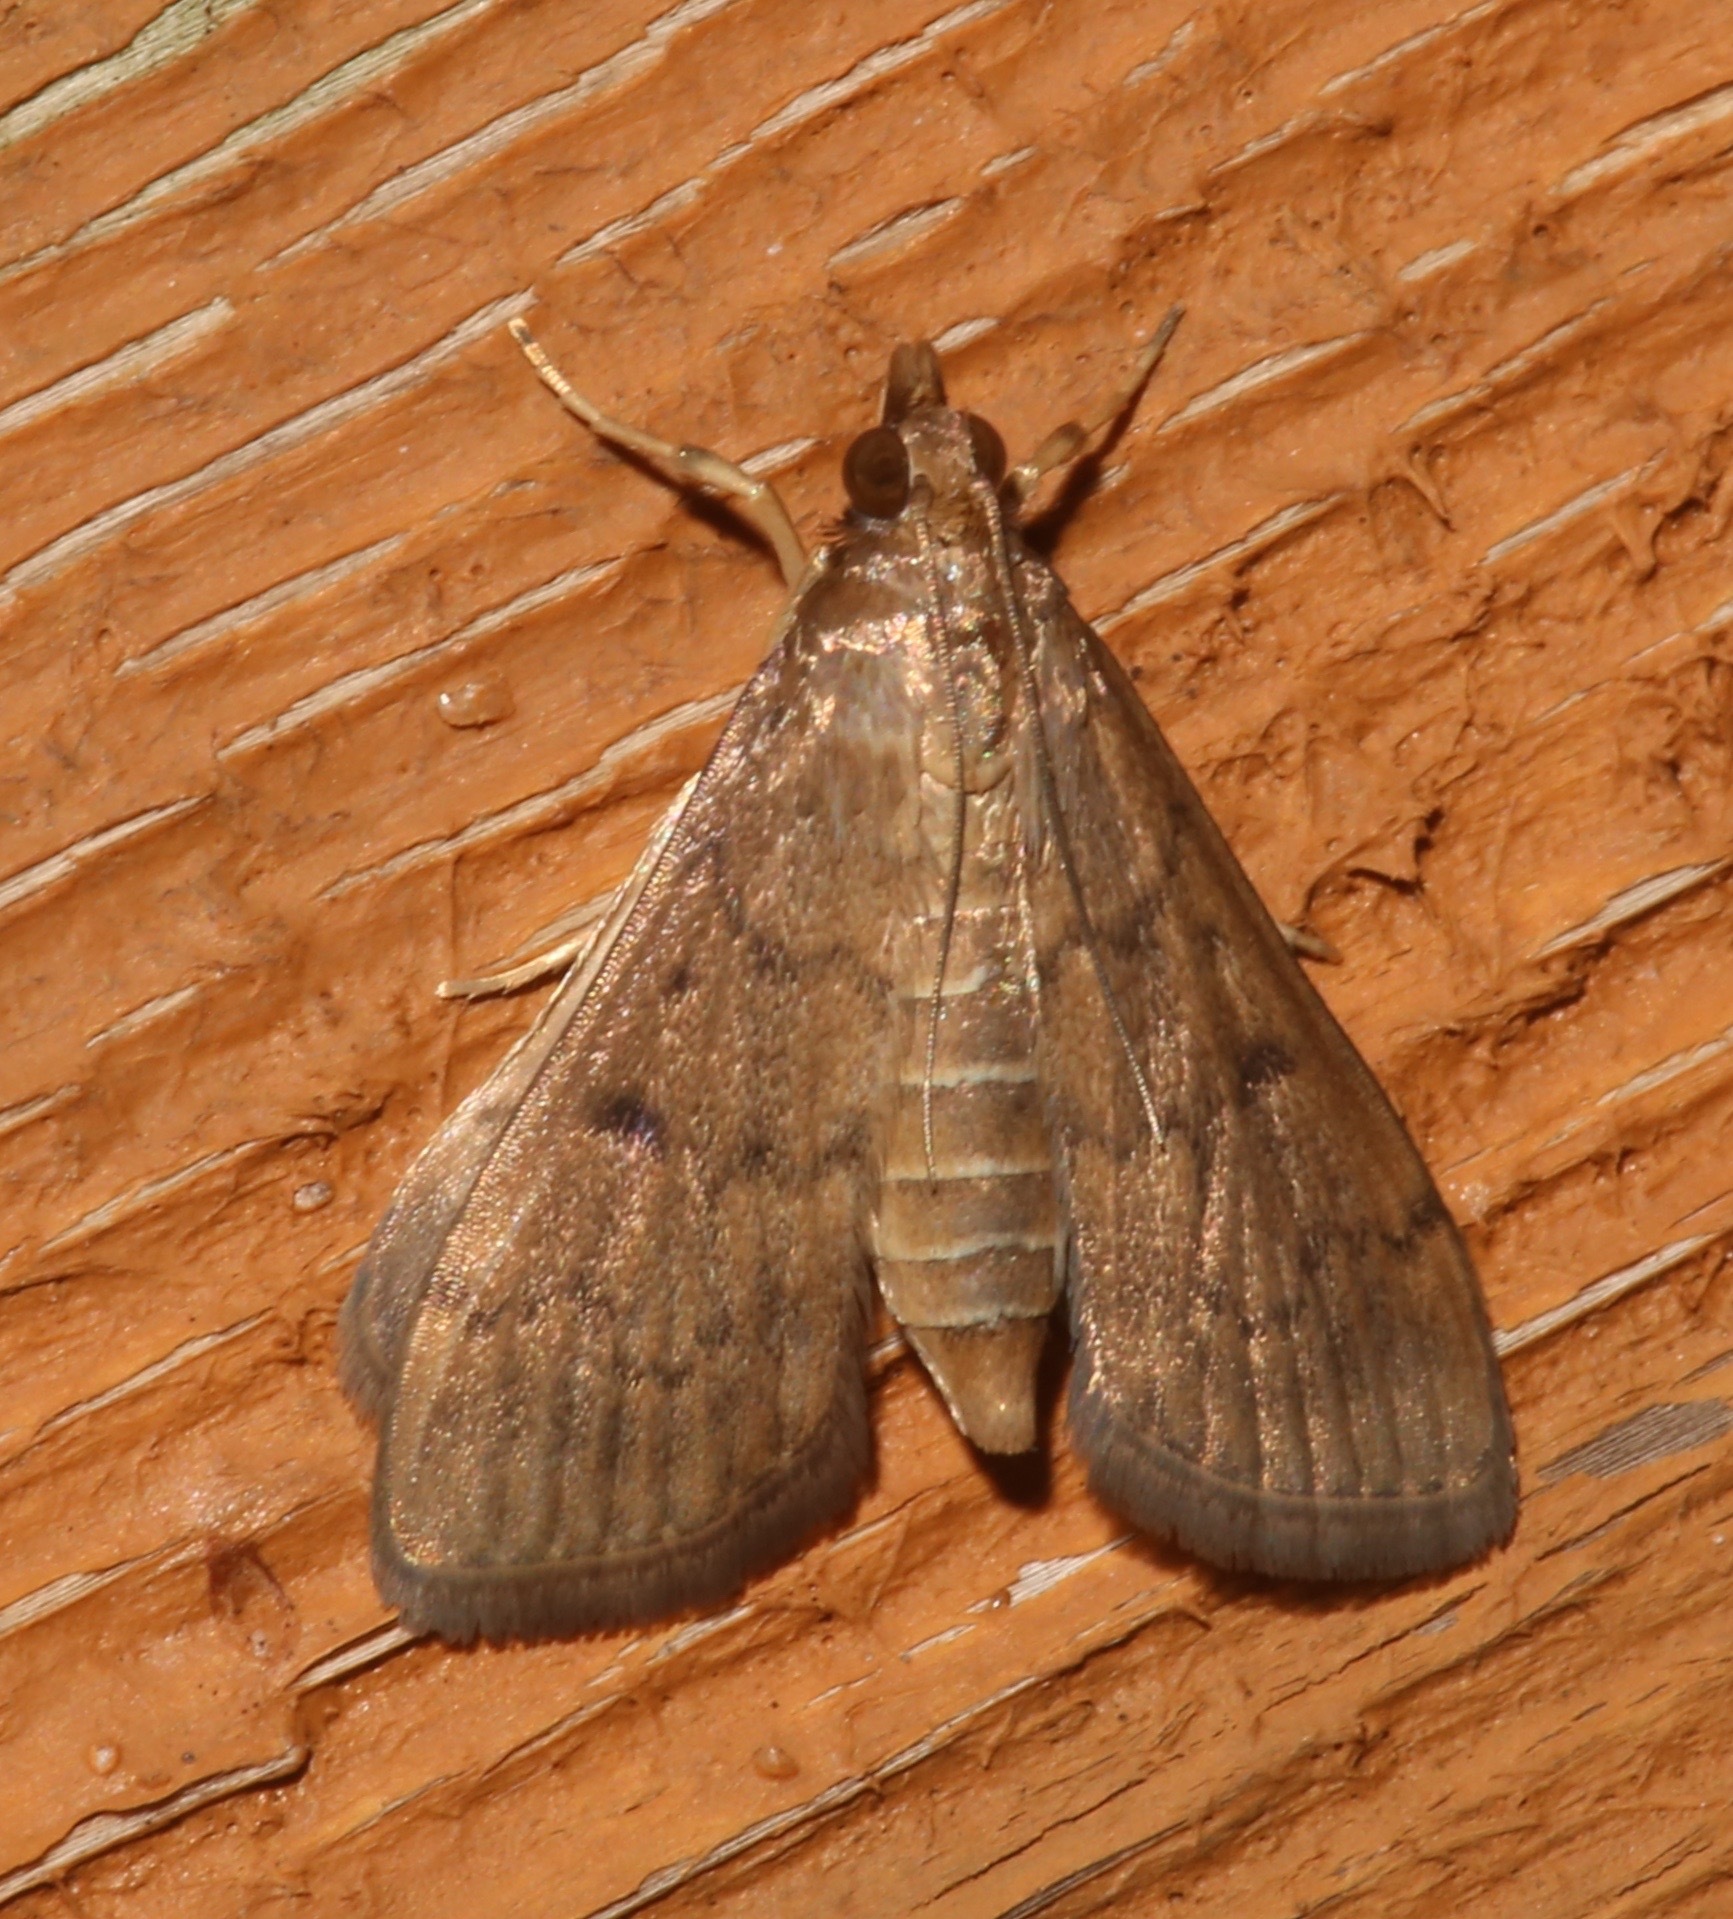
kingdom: Animalia
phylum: Arthropoda
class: Insecta
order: Lepidoptera
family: Crambidae
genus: Herpetogramma
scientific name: Herpetogramma phaeopteralis
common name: Dusky herpetogramma moth
